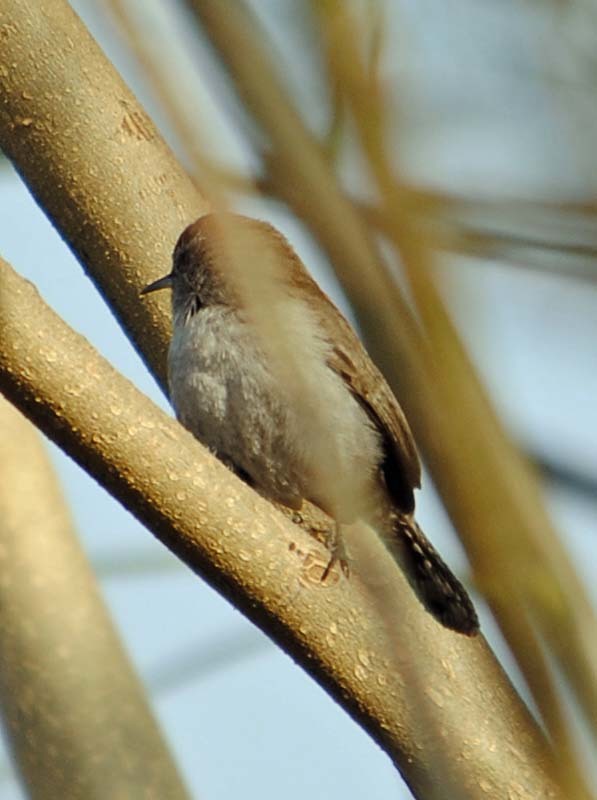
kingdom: Animalia
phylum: Chordata
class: Aves
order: Passeriformes
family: Troglodytidae
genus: Thryomanes
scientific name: Thryomanes bewickii
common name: Bewick's wren
